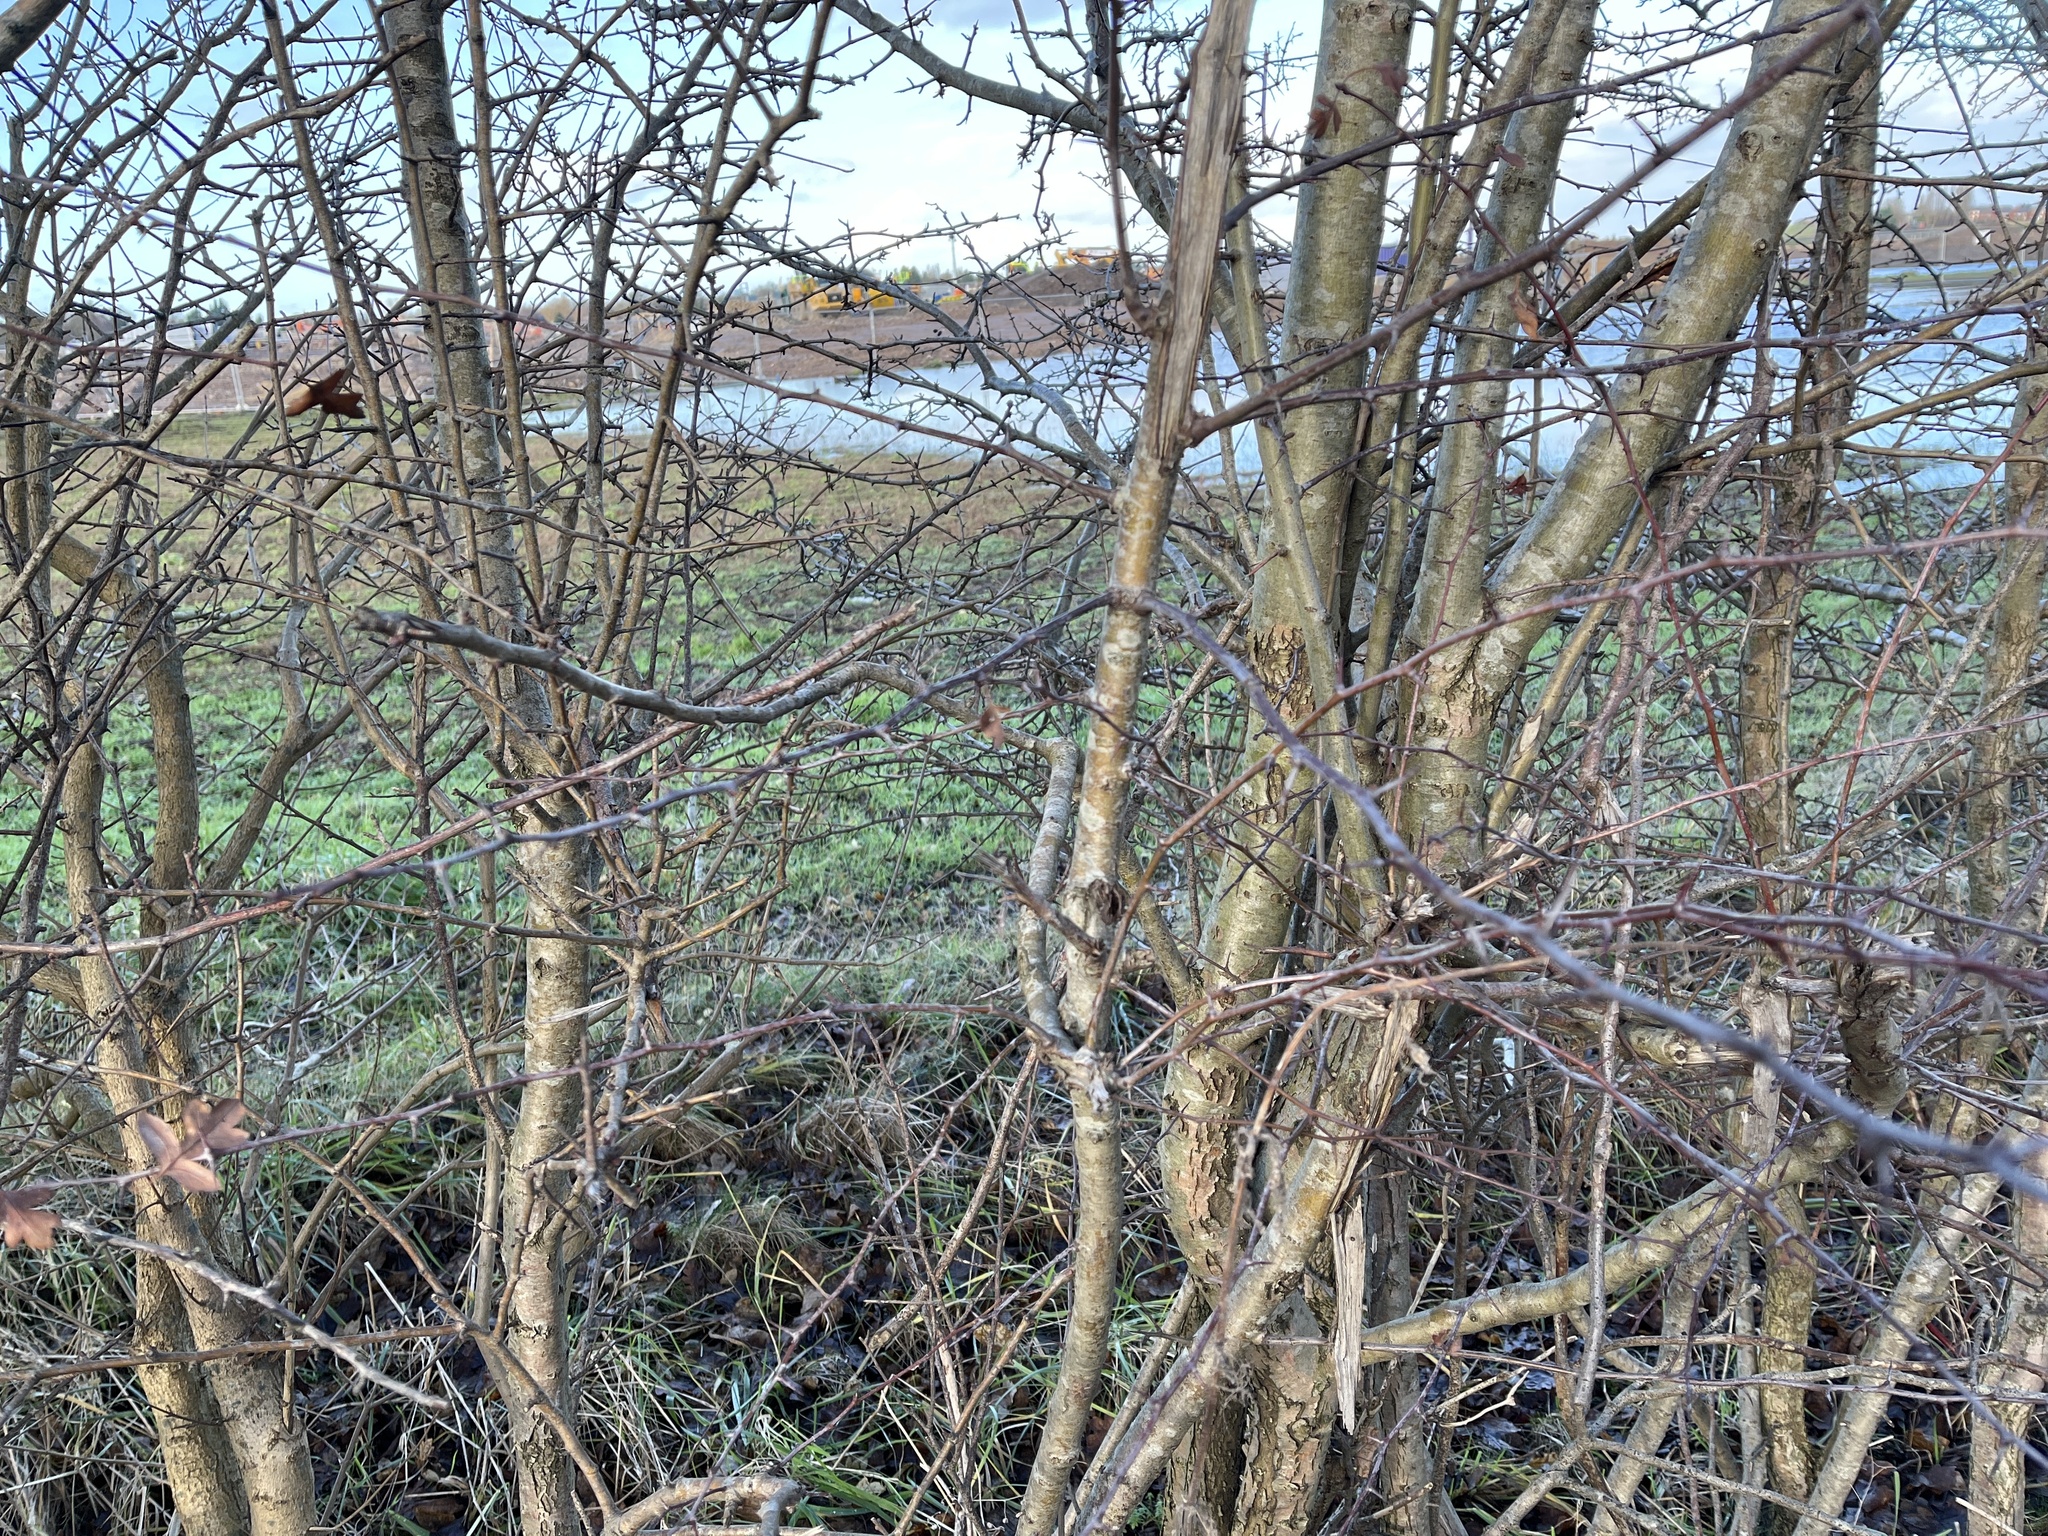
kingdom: Plantae
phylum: Tracheophyta
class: Magnoliopsida
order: Rosales
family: Rosaceae
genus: Crataegus
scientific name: Crataegus monogyna
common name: Hawthorn
